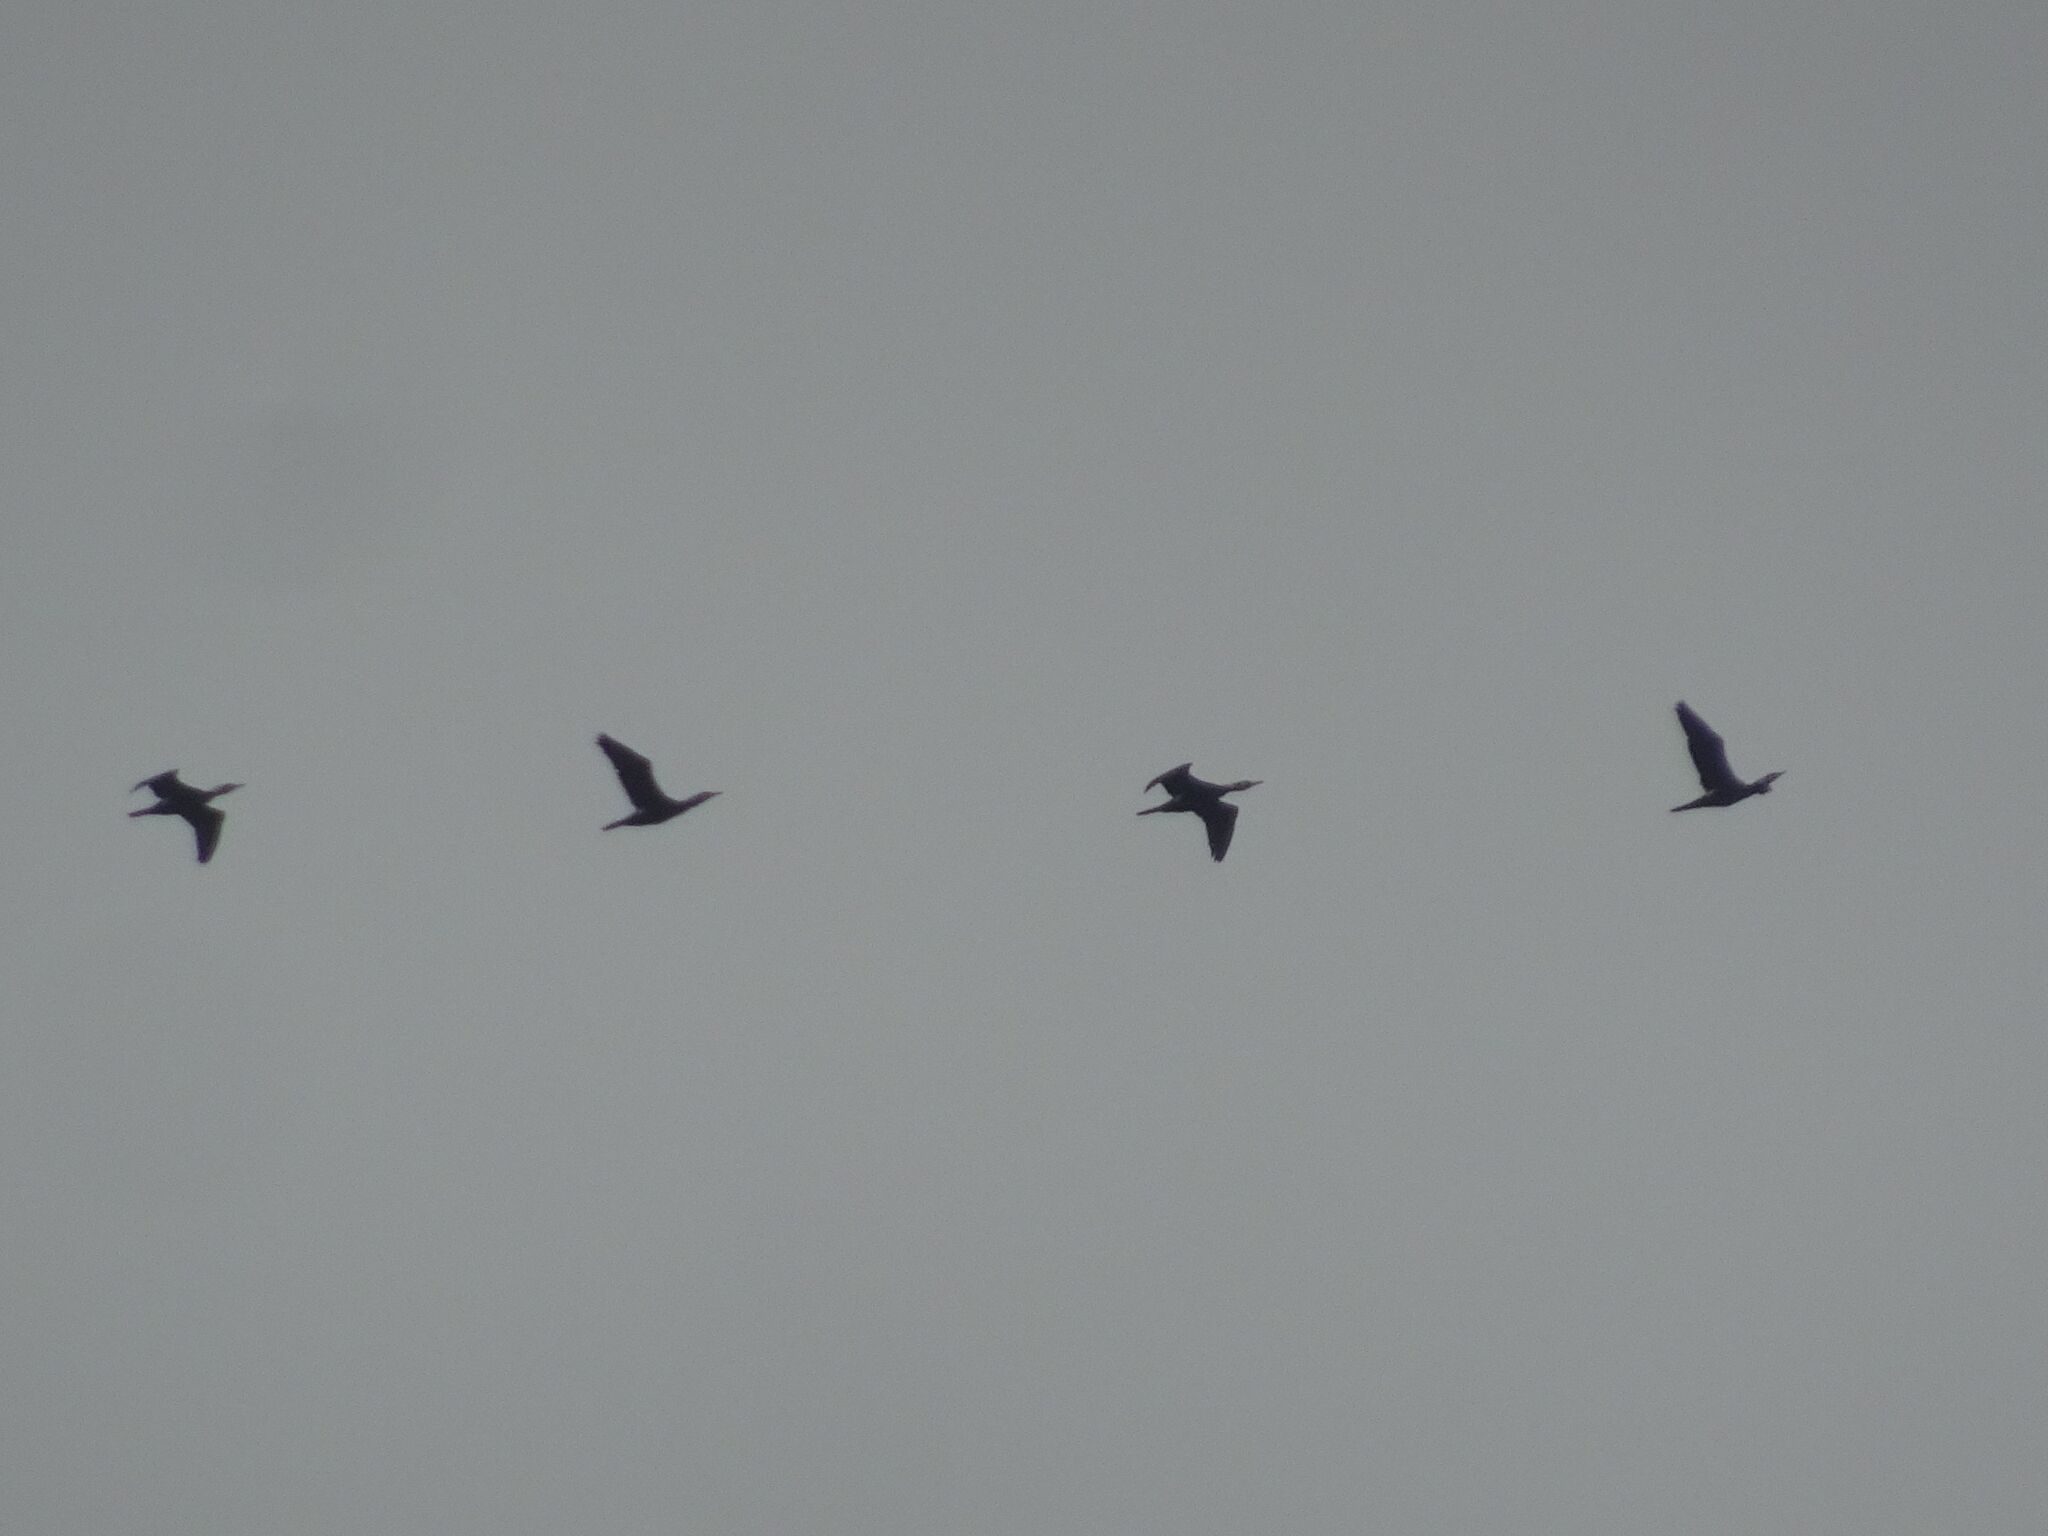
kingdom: Animalia
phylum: Chordata
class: Aves
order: Suliformes
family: Phalacrocoracidae
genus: Phalacrocorax
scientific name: Phalacrocorax carbo
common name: Great cormorant
